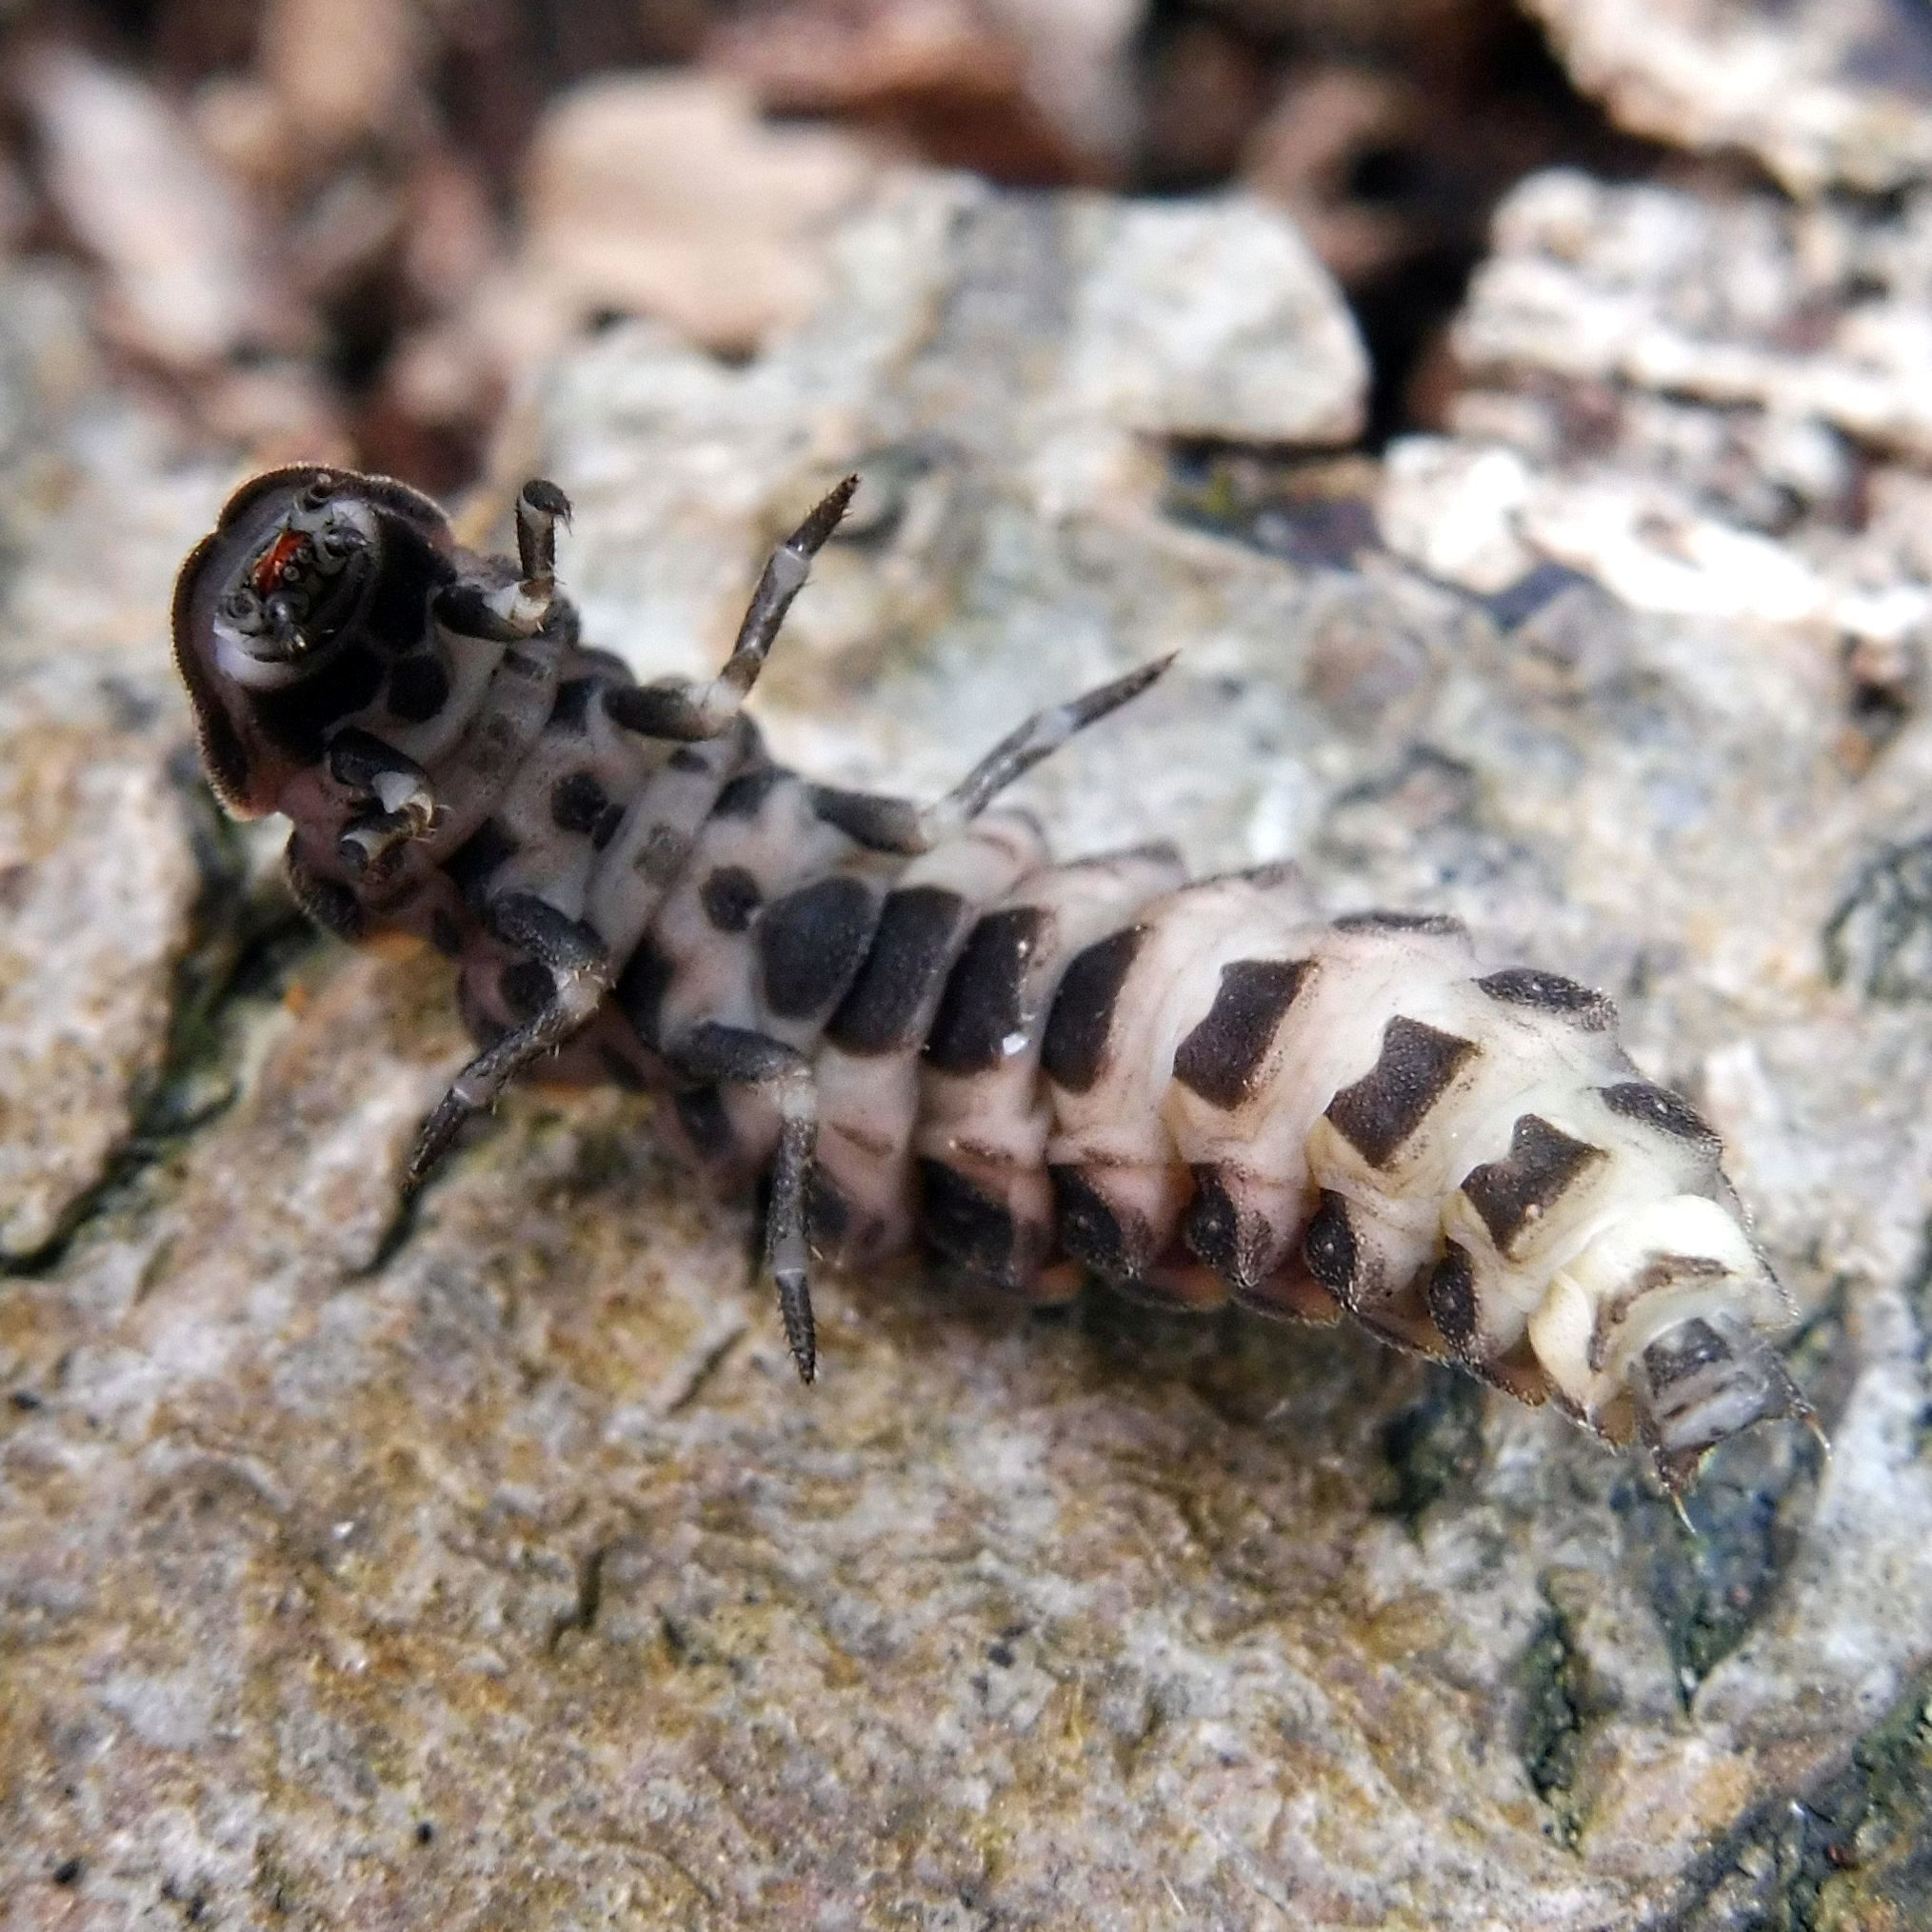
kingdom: Animalia
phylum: Arthropoda
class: Insecta
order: Coleoptera
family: Lampyridae
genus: Lampyris
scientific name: Lampyris noctiluca
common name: Glow-worm
